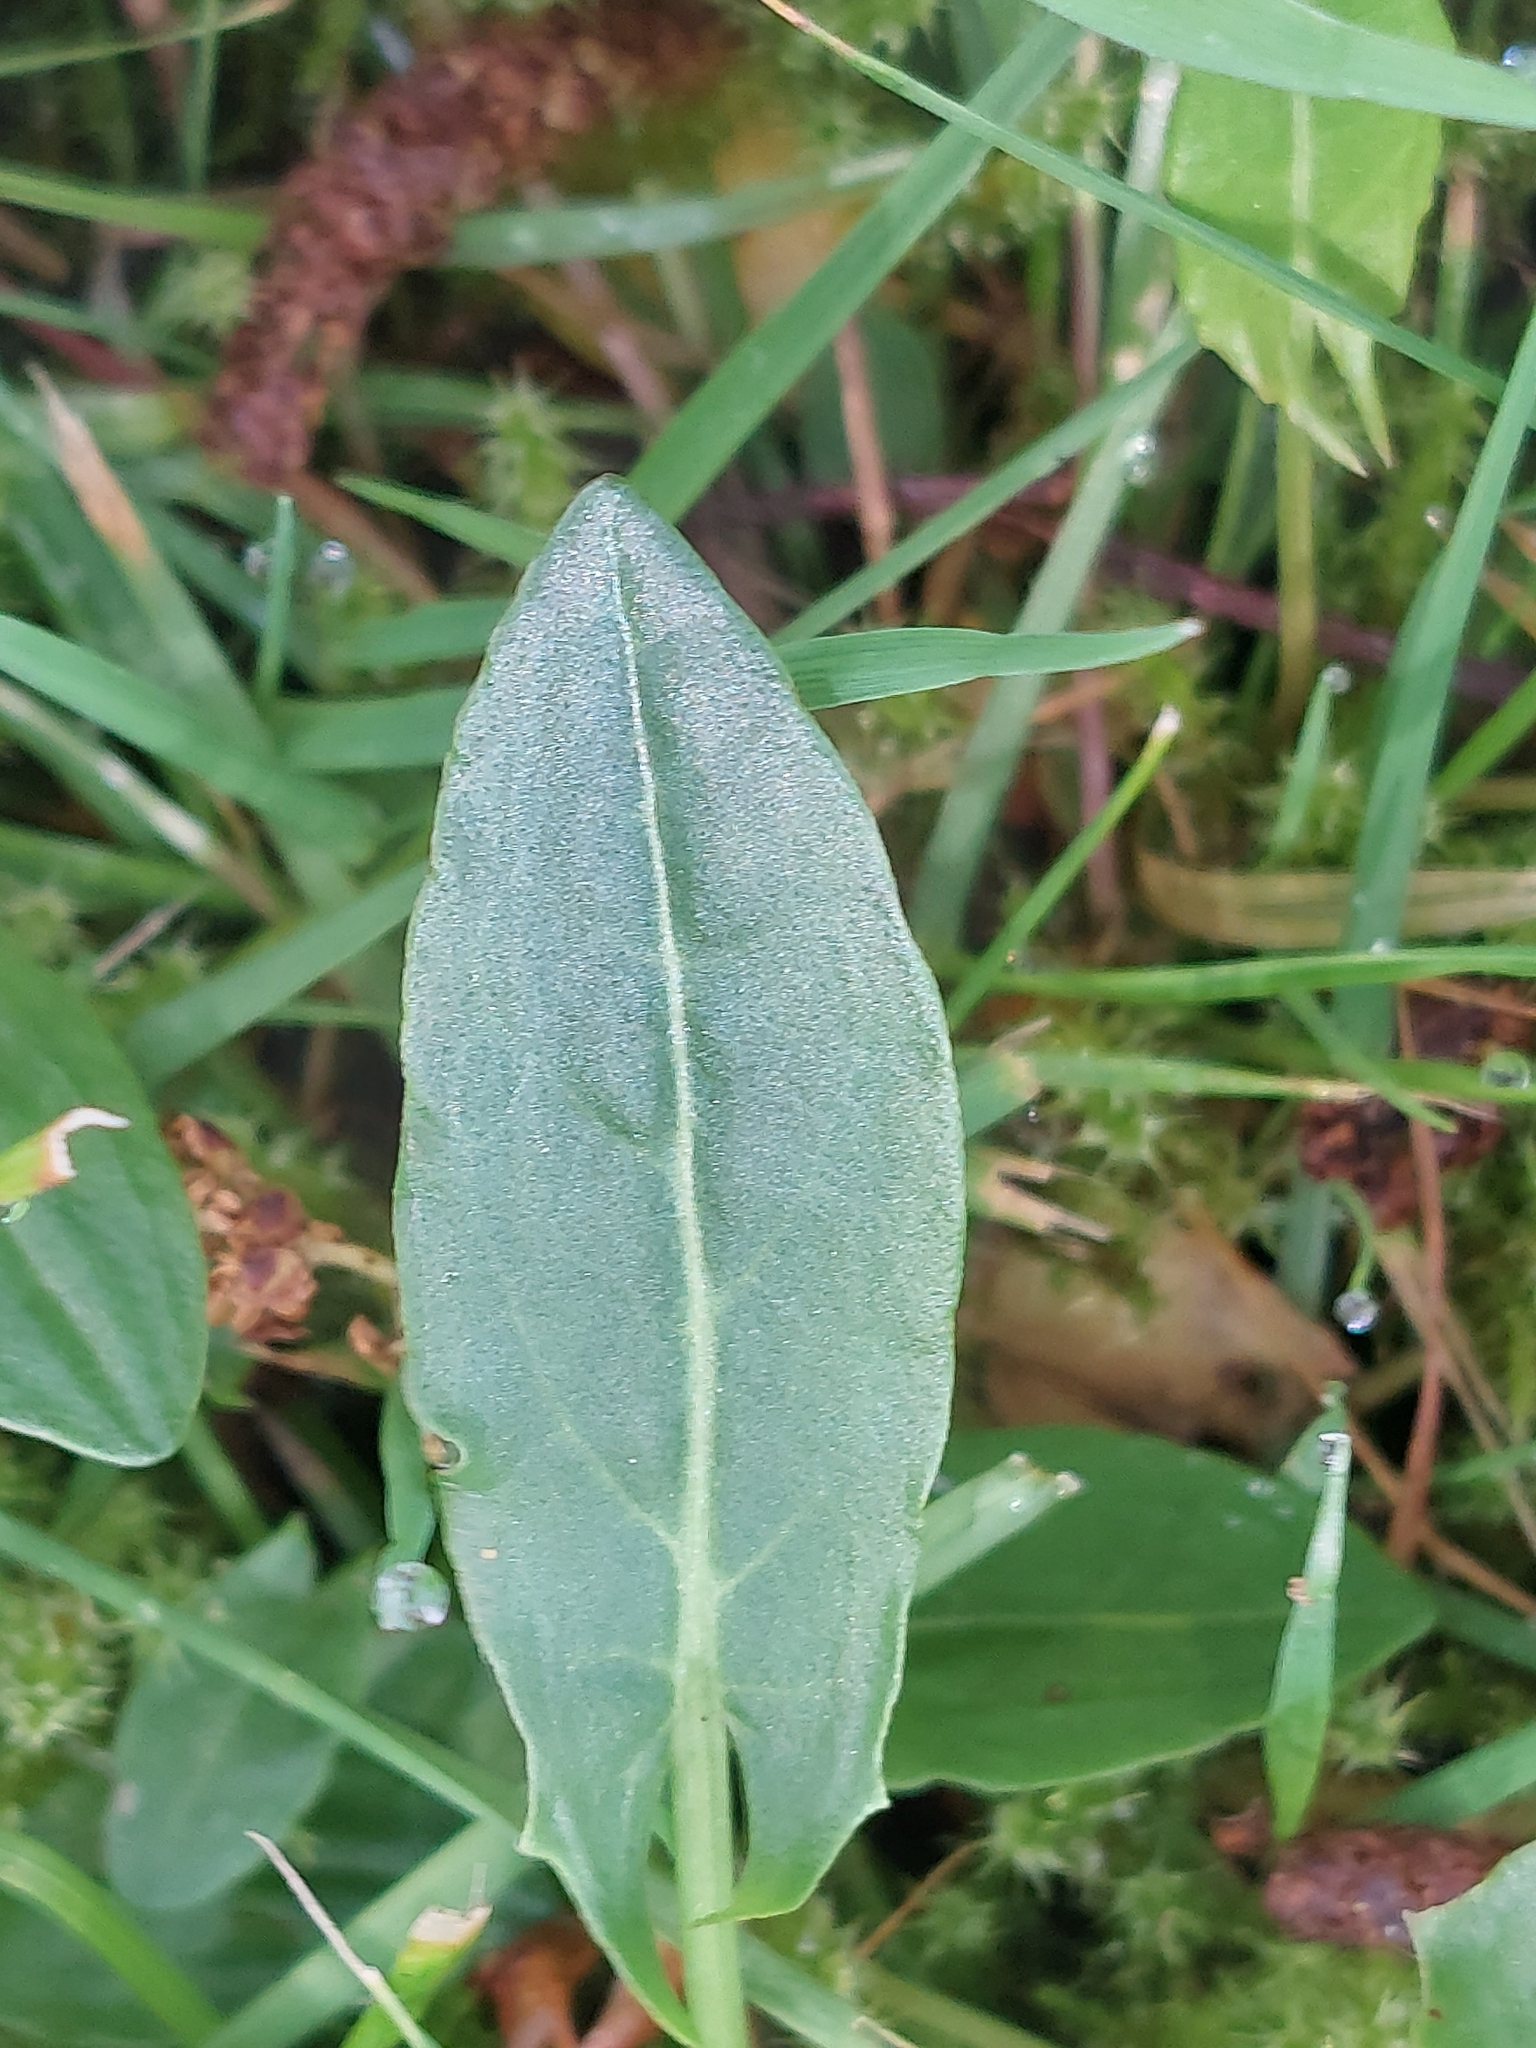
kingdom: Plantae
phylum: Tracheophyta
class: Magnoliopsida
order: Caryophyllales
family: Polygonaceae
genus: Rumex
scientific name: Rumex acetosa
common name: Garden sorrel
